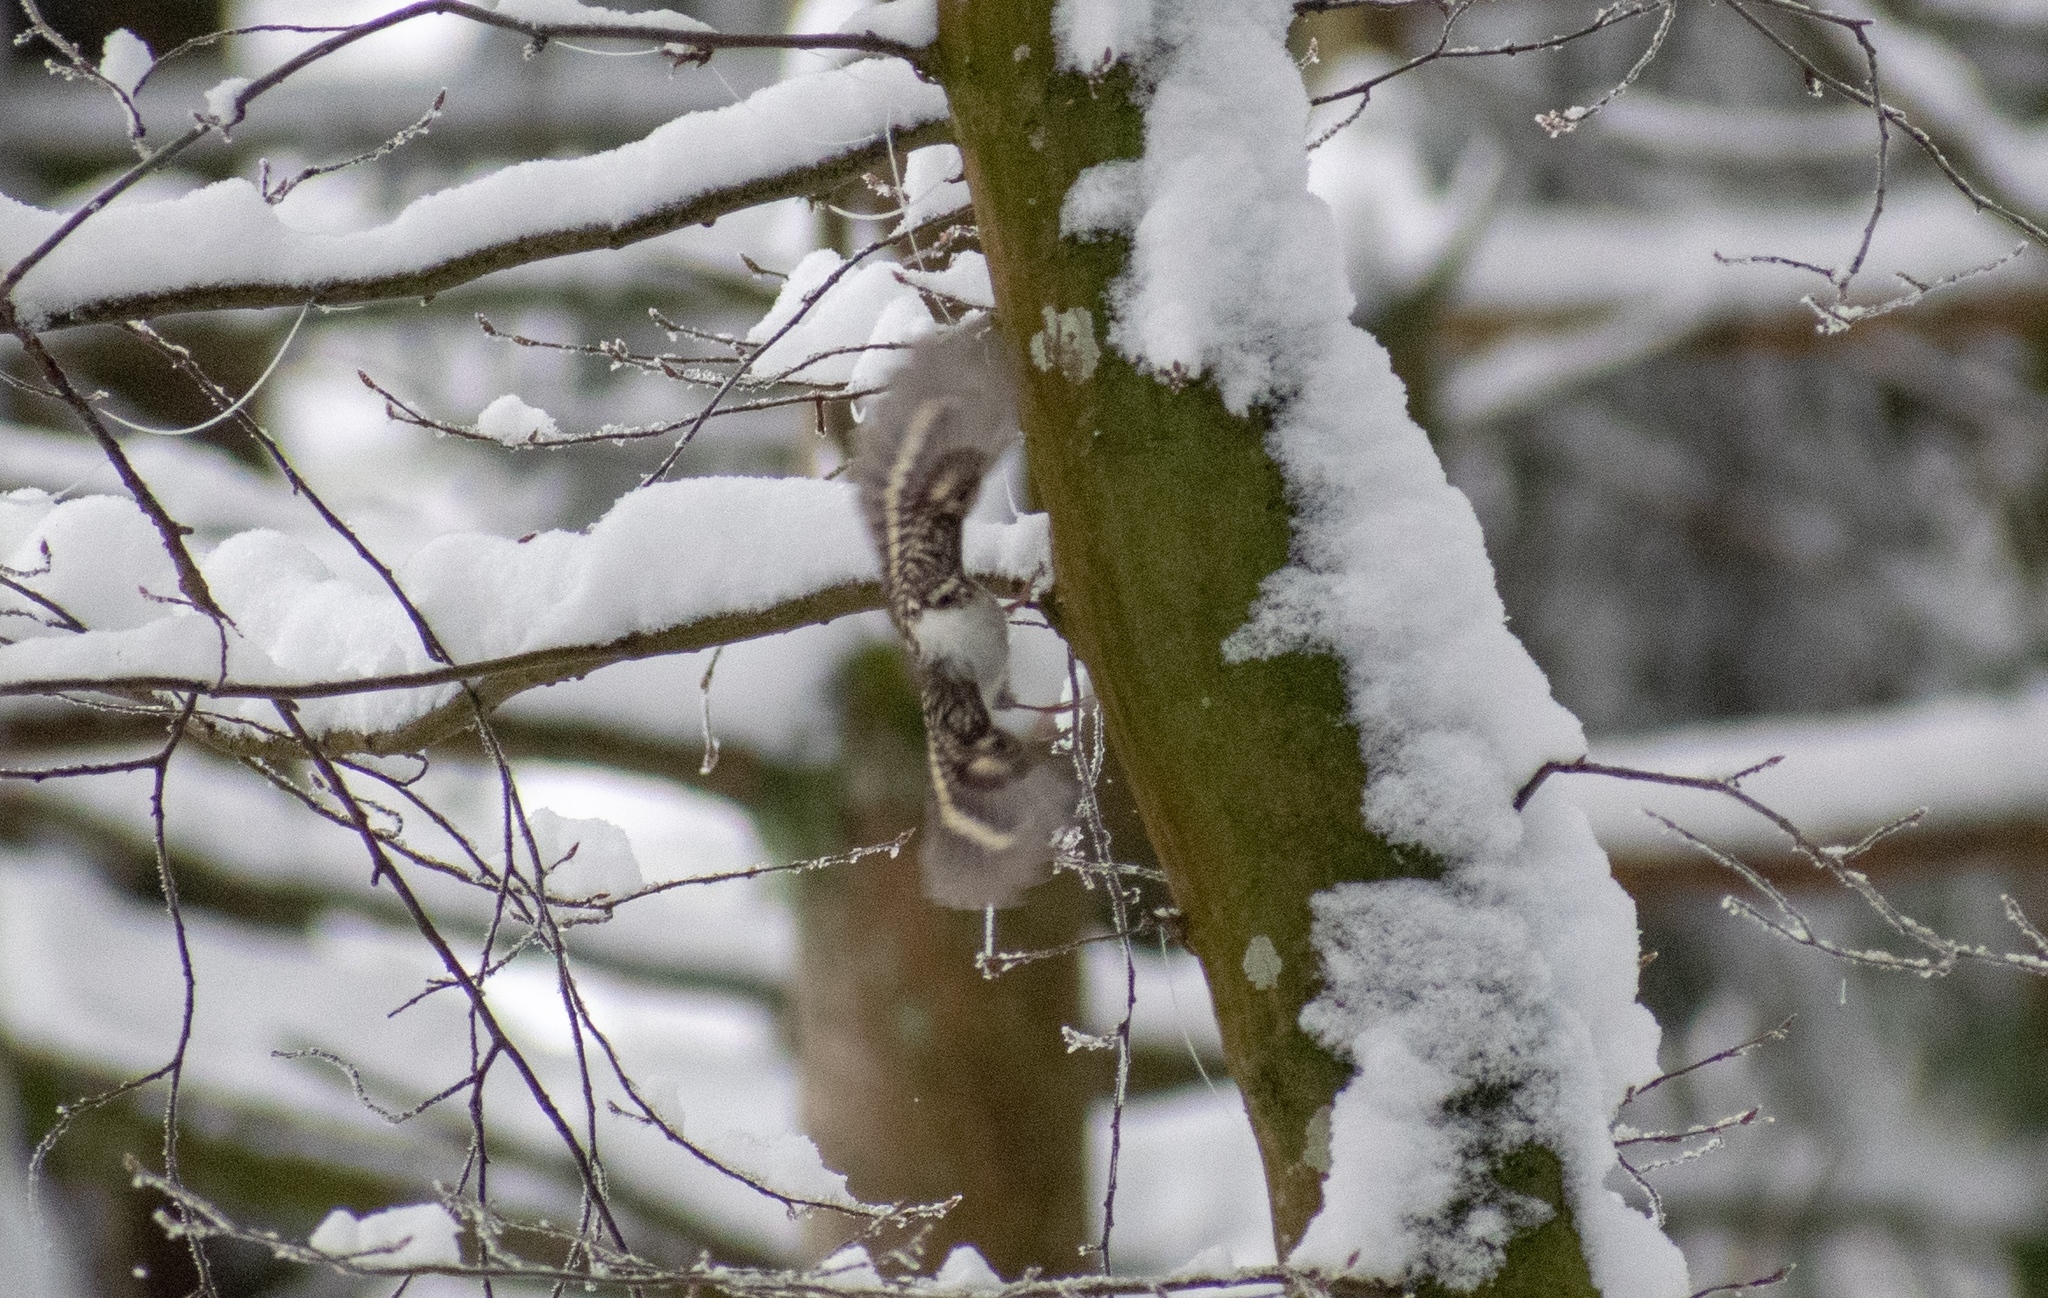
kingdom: Animalia
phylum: Chordata
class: Aves
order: Passeriformes
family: Certhiidae
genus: Certhia
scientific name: Certhia
